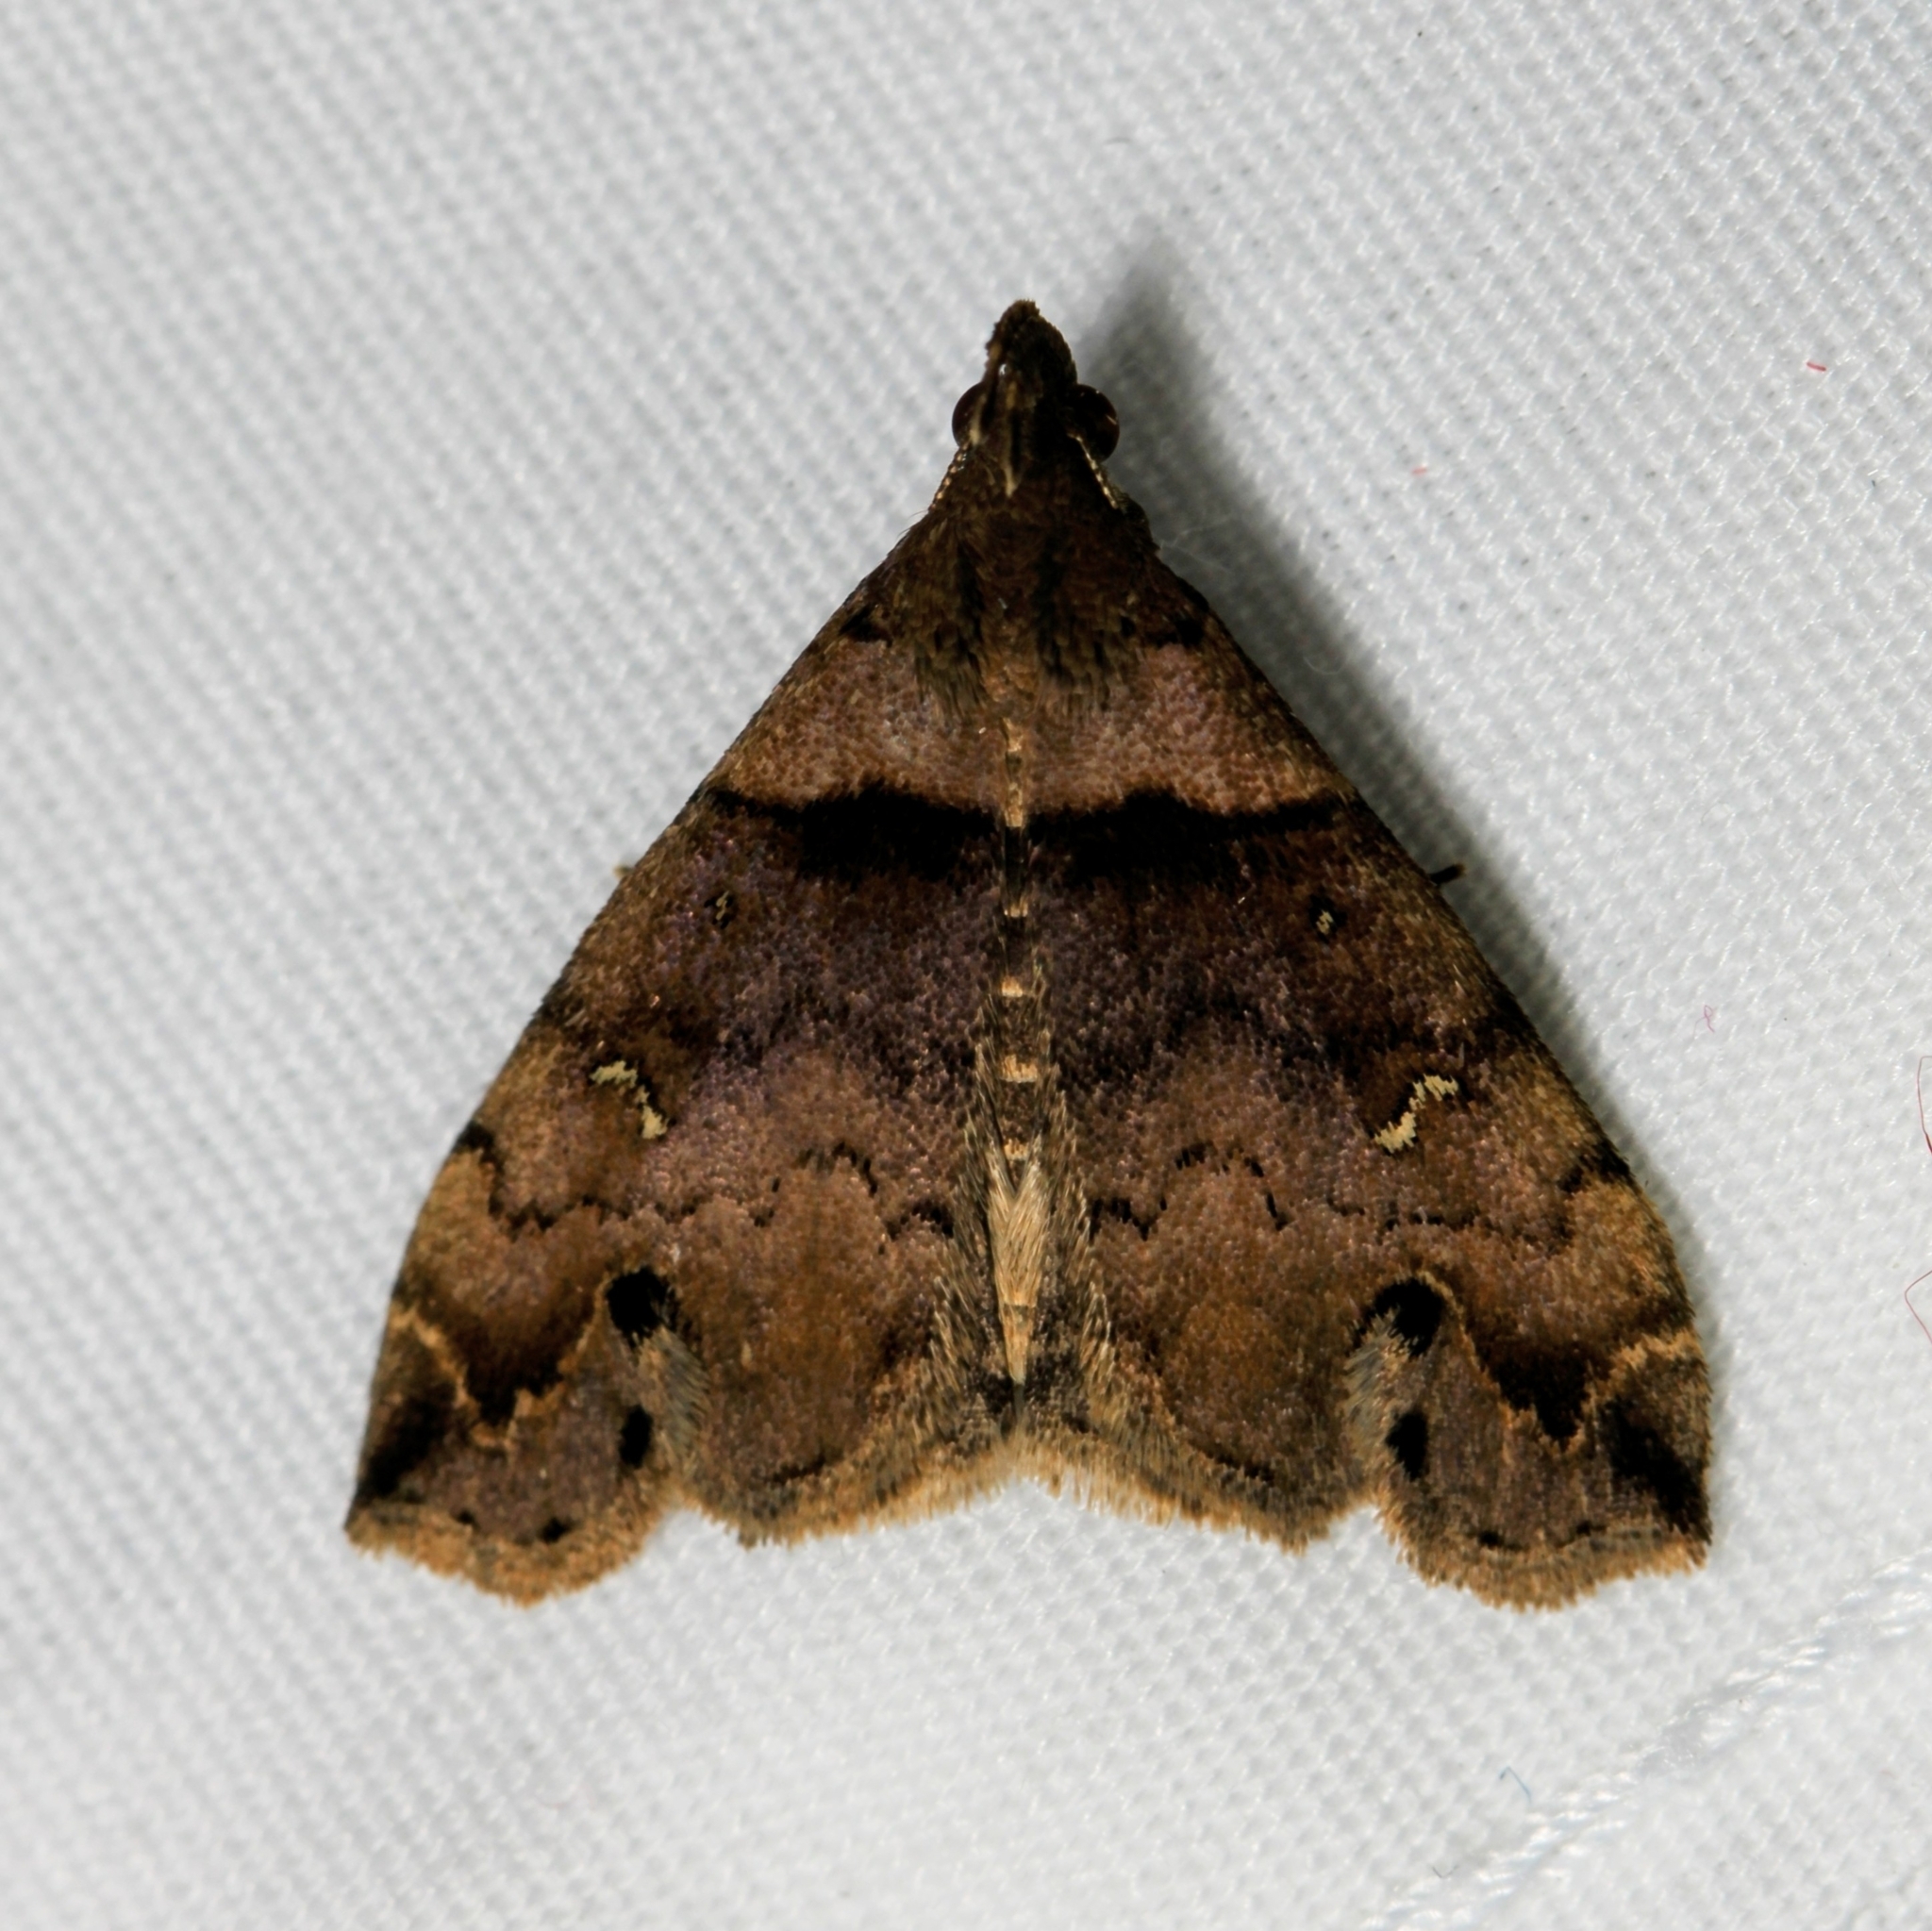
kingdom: Animalia
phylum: Arthropoda
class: Insecta
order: Lepidoptera
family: Erebidae
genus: Lascoria
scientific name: Lascoria ambigualis
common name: Ambiguous moth
